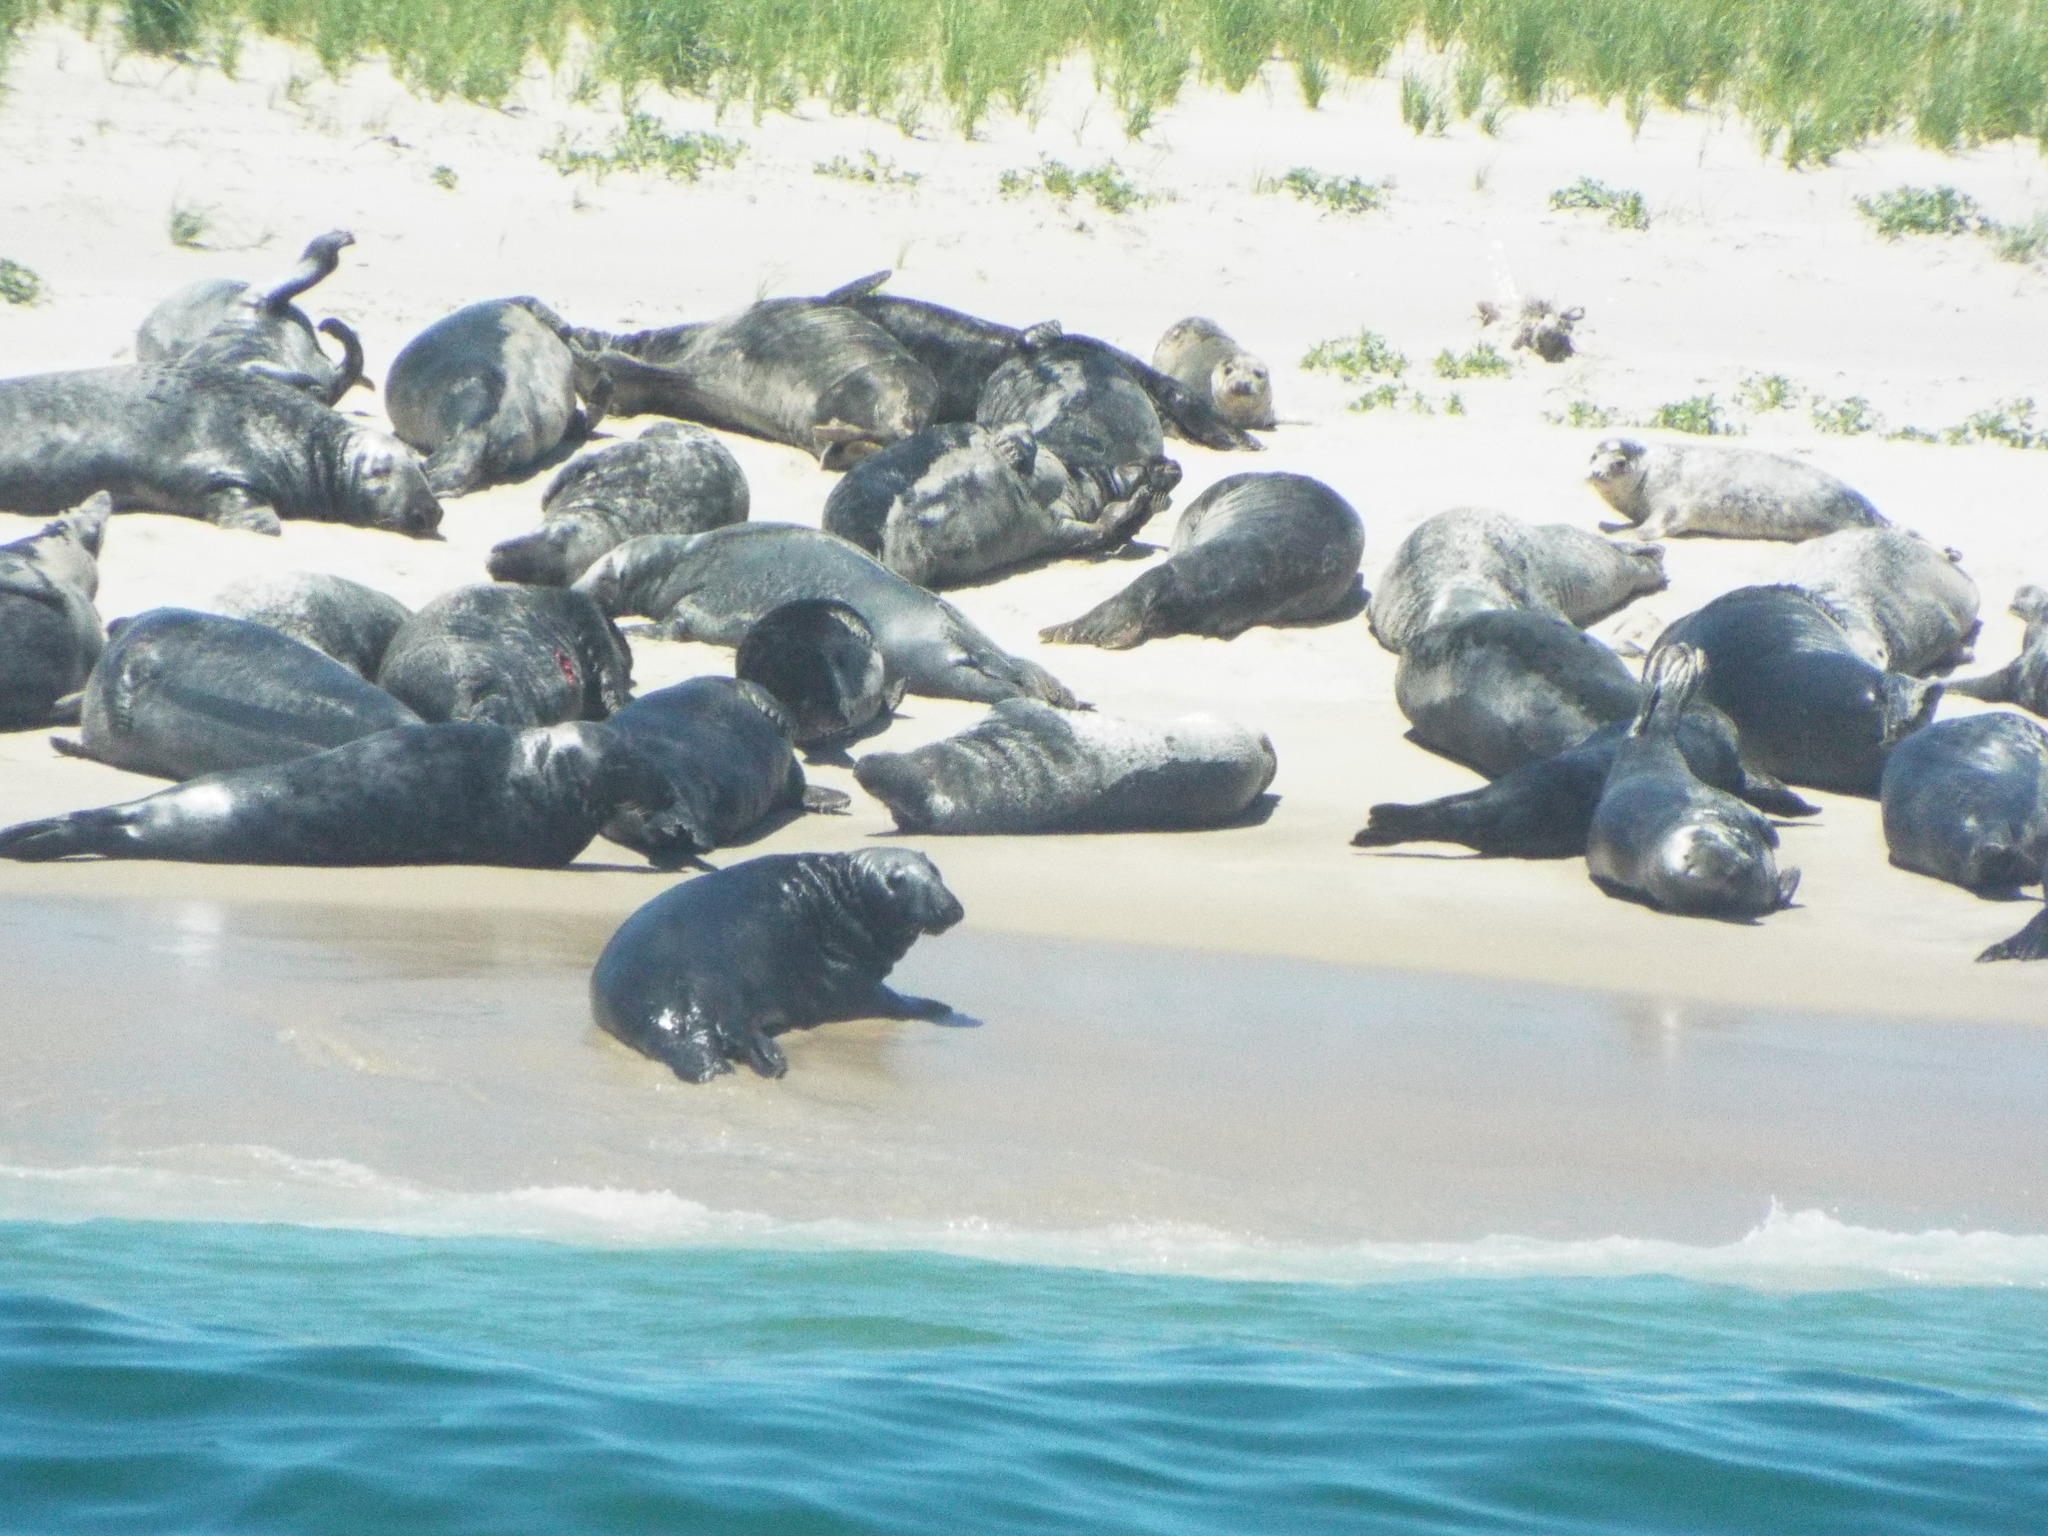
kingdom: Animalia
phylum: Chordata
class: Mammalia
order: Carnivora
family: Phocidae
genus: Halichoerus
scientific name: Halichoerus grypus
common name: Grey seal
